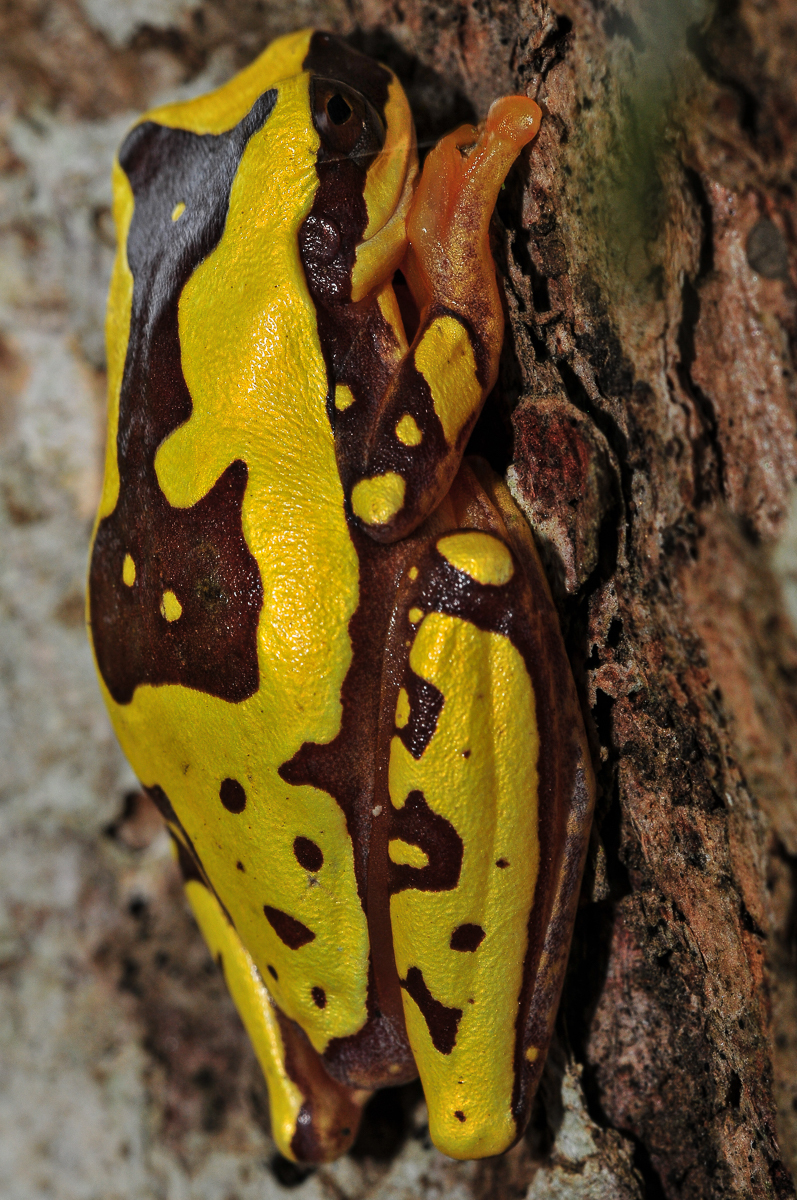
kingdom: Animalia
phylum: Chordata
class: Amphibia
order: Anura
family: Hylidae
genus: Dendropsophus
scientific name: Dendropsophus ebraccatus
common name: Hourglass treefrog
